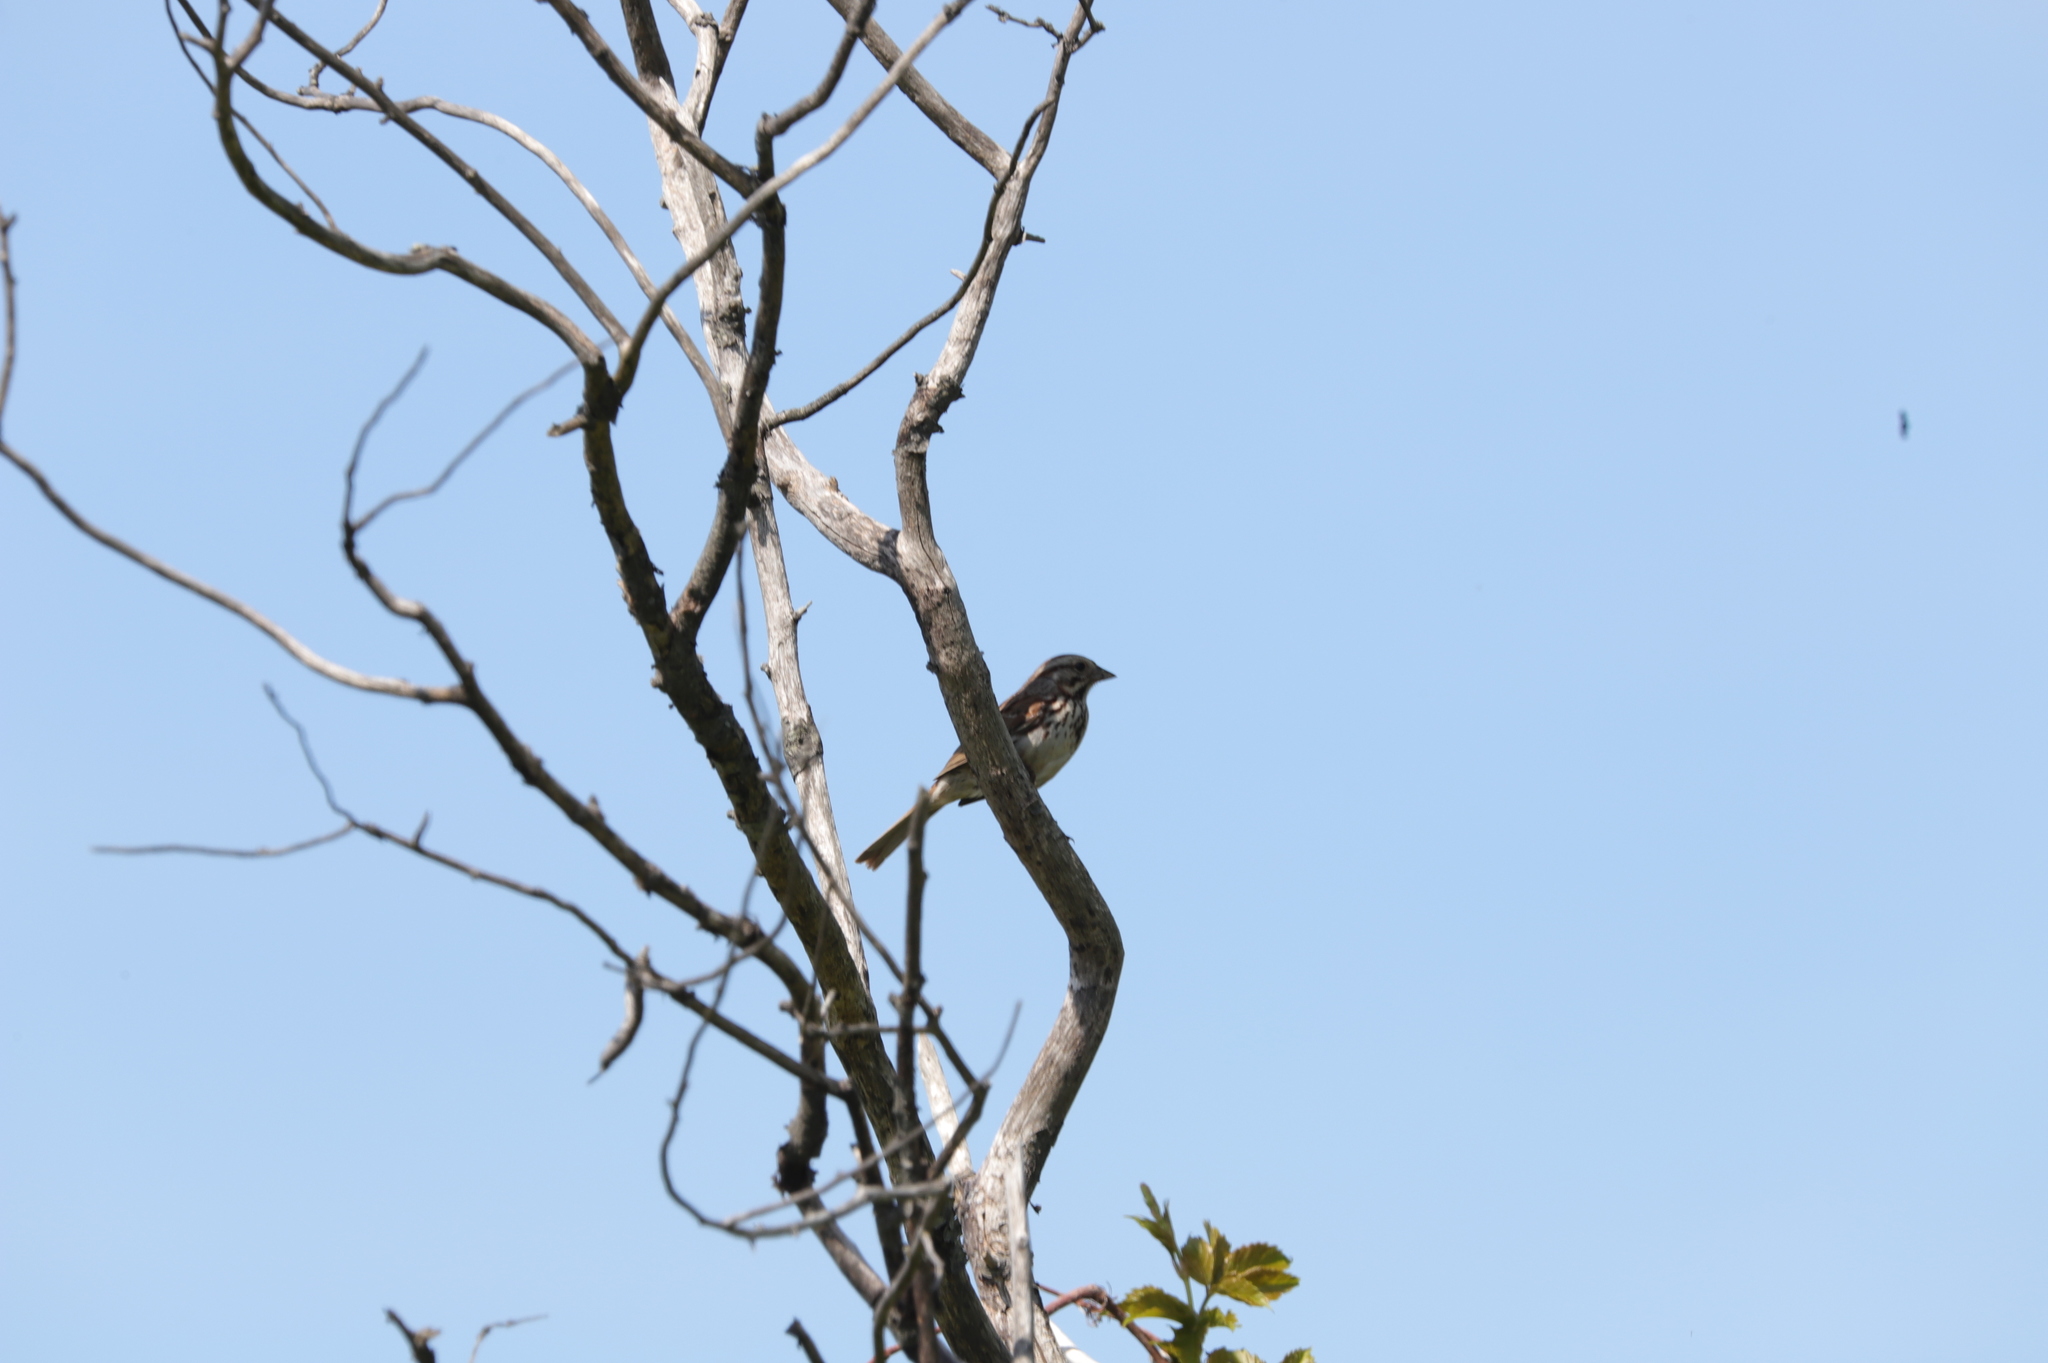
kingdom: Animalia
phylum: Chordata
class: Aves
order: Passeriformes
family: Passerellidae
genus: Melospiza
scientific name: Melospiza melodia
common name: Song sparrow
